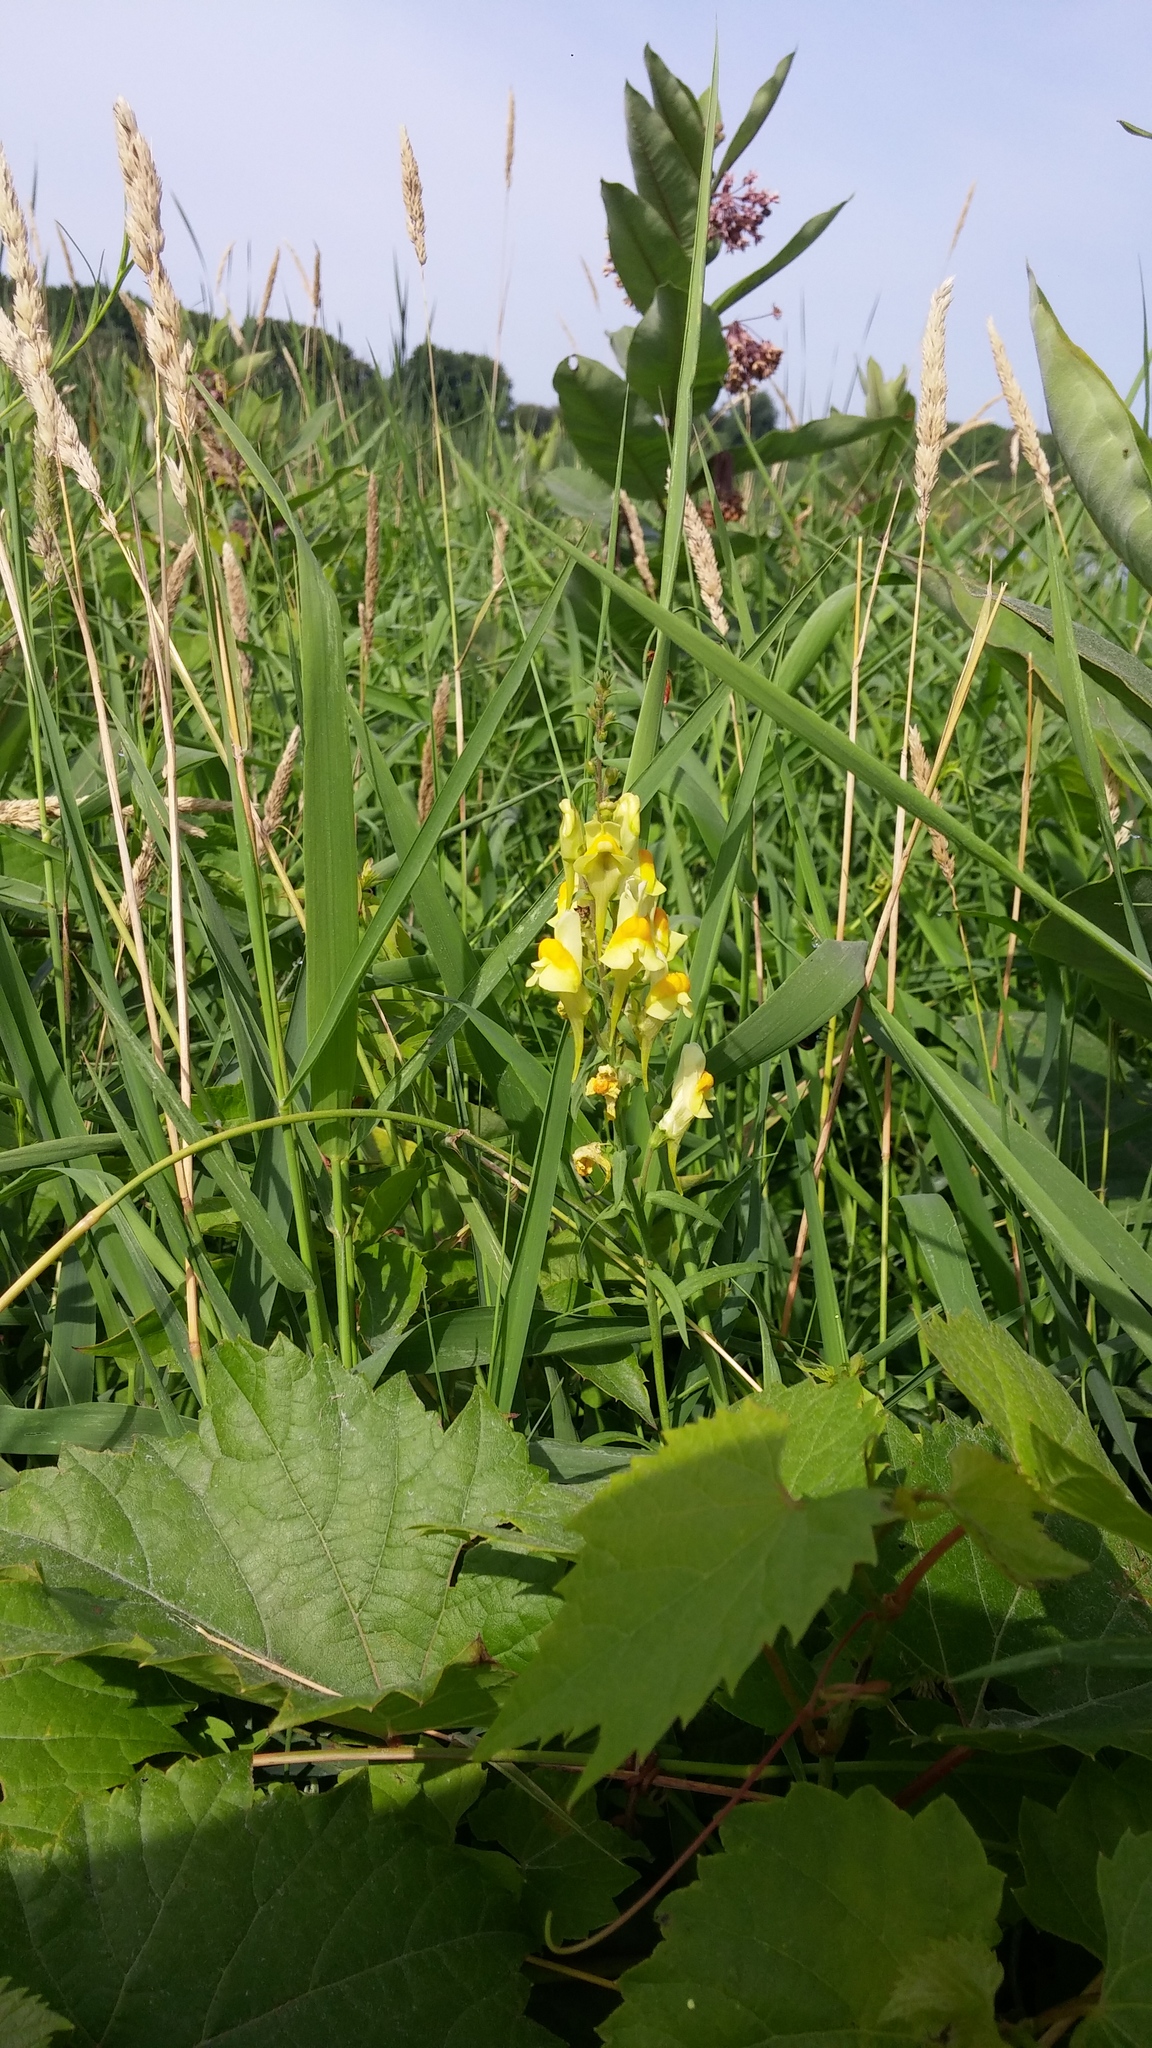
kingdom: Plantae
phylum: Tracheophyta
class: Magnoliopsida
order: Lamiales
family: Plantaginaceae
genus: Linaria
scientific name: Linaria vulgaris
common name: Butter and eggs
